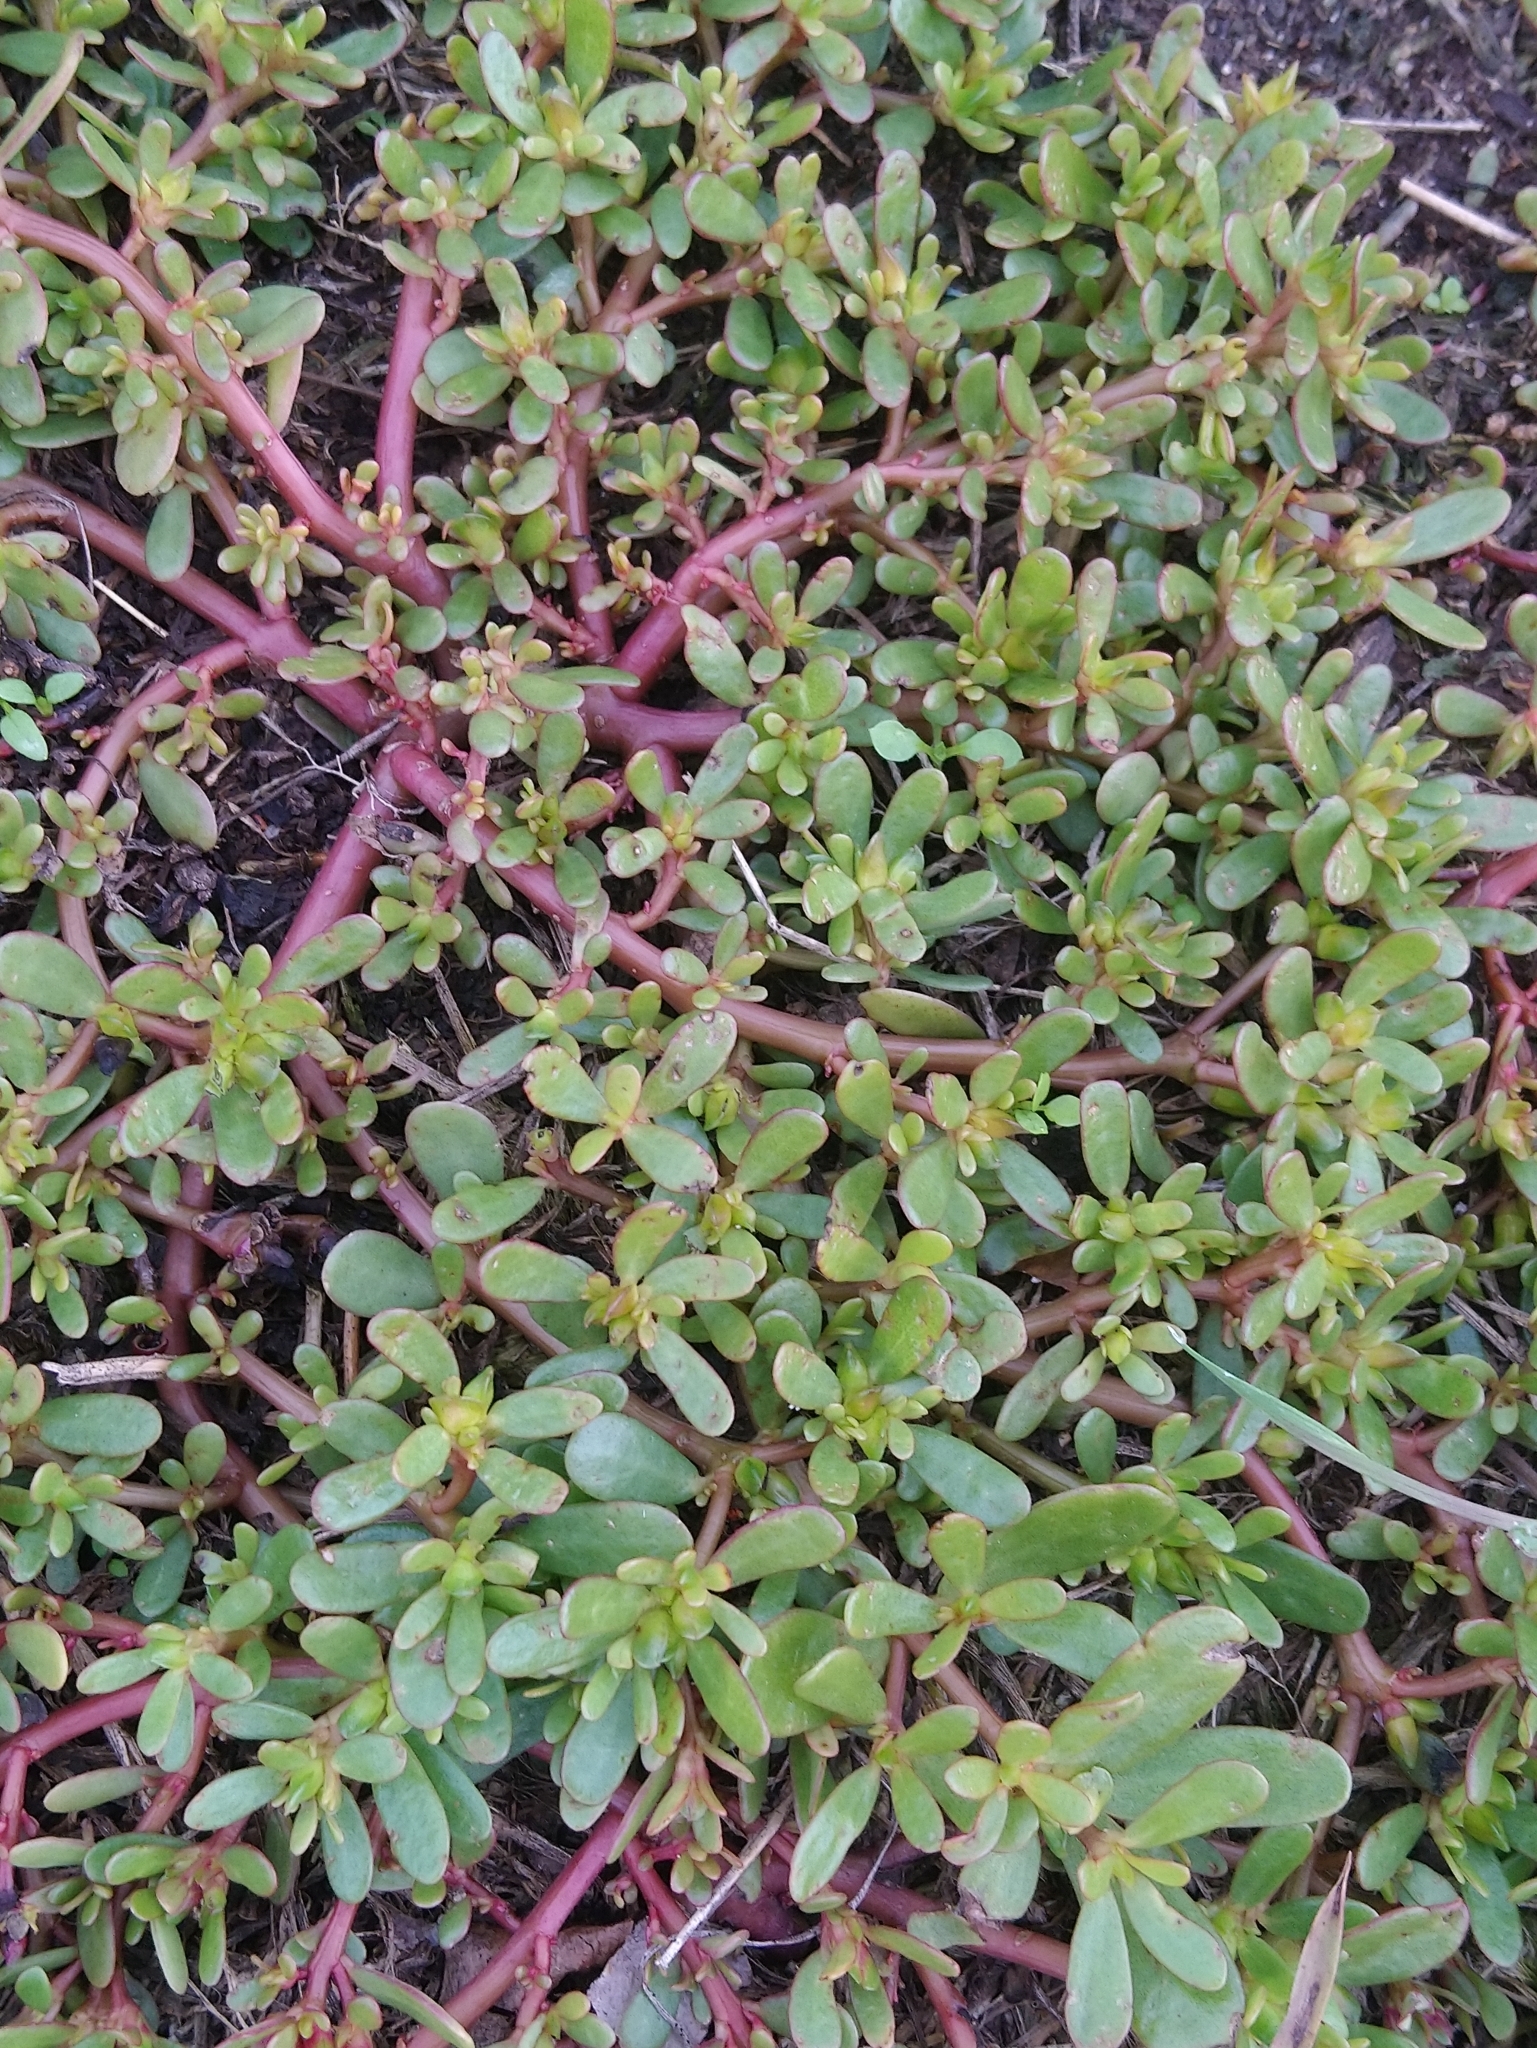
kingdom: Plantae
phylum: Tracheophyta
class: Magnoliopsida
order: Caryophyllales
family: Portulacaceae
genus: Portulaca
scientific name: Portulaca oleracea
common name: Common purslane
